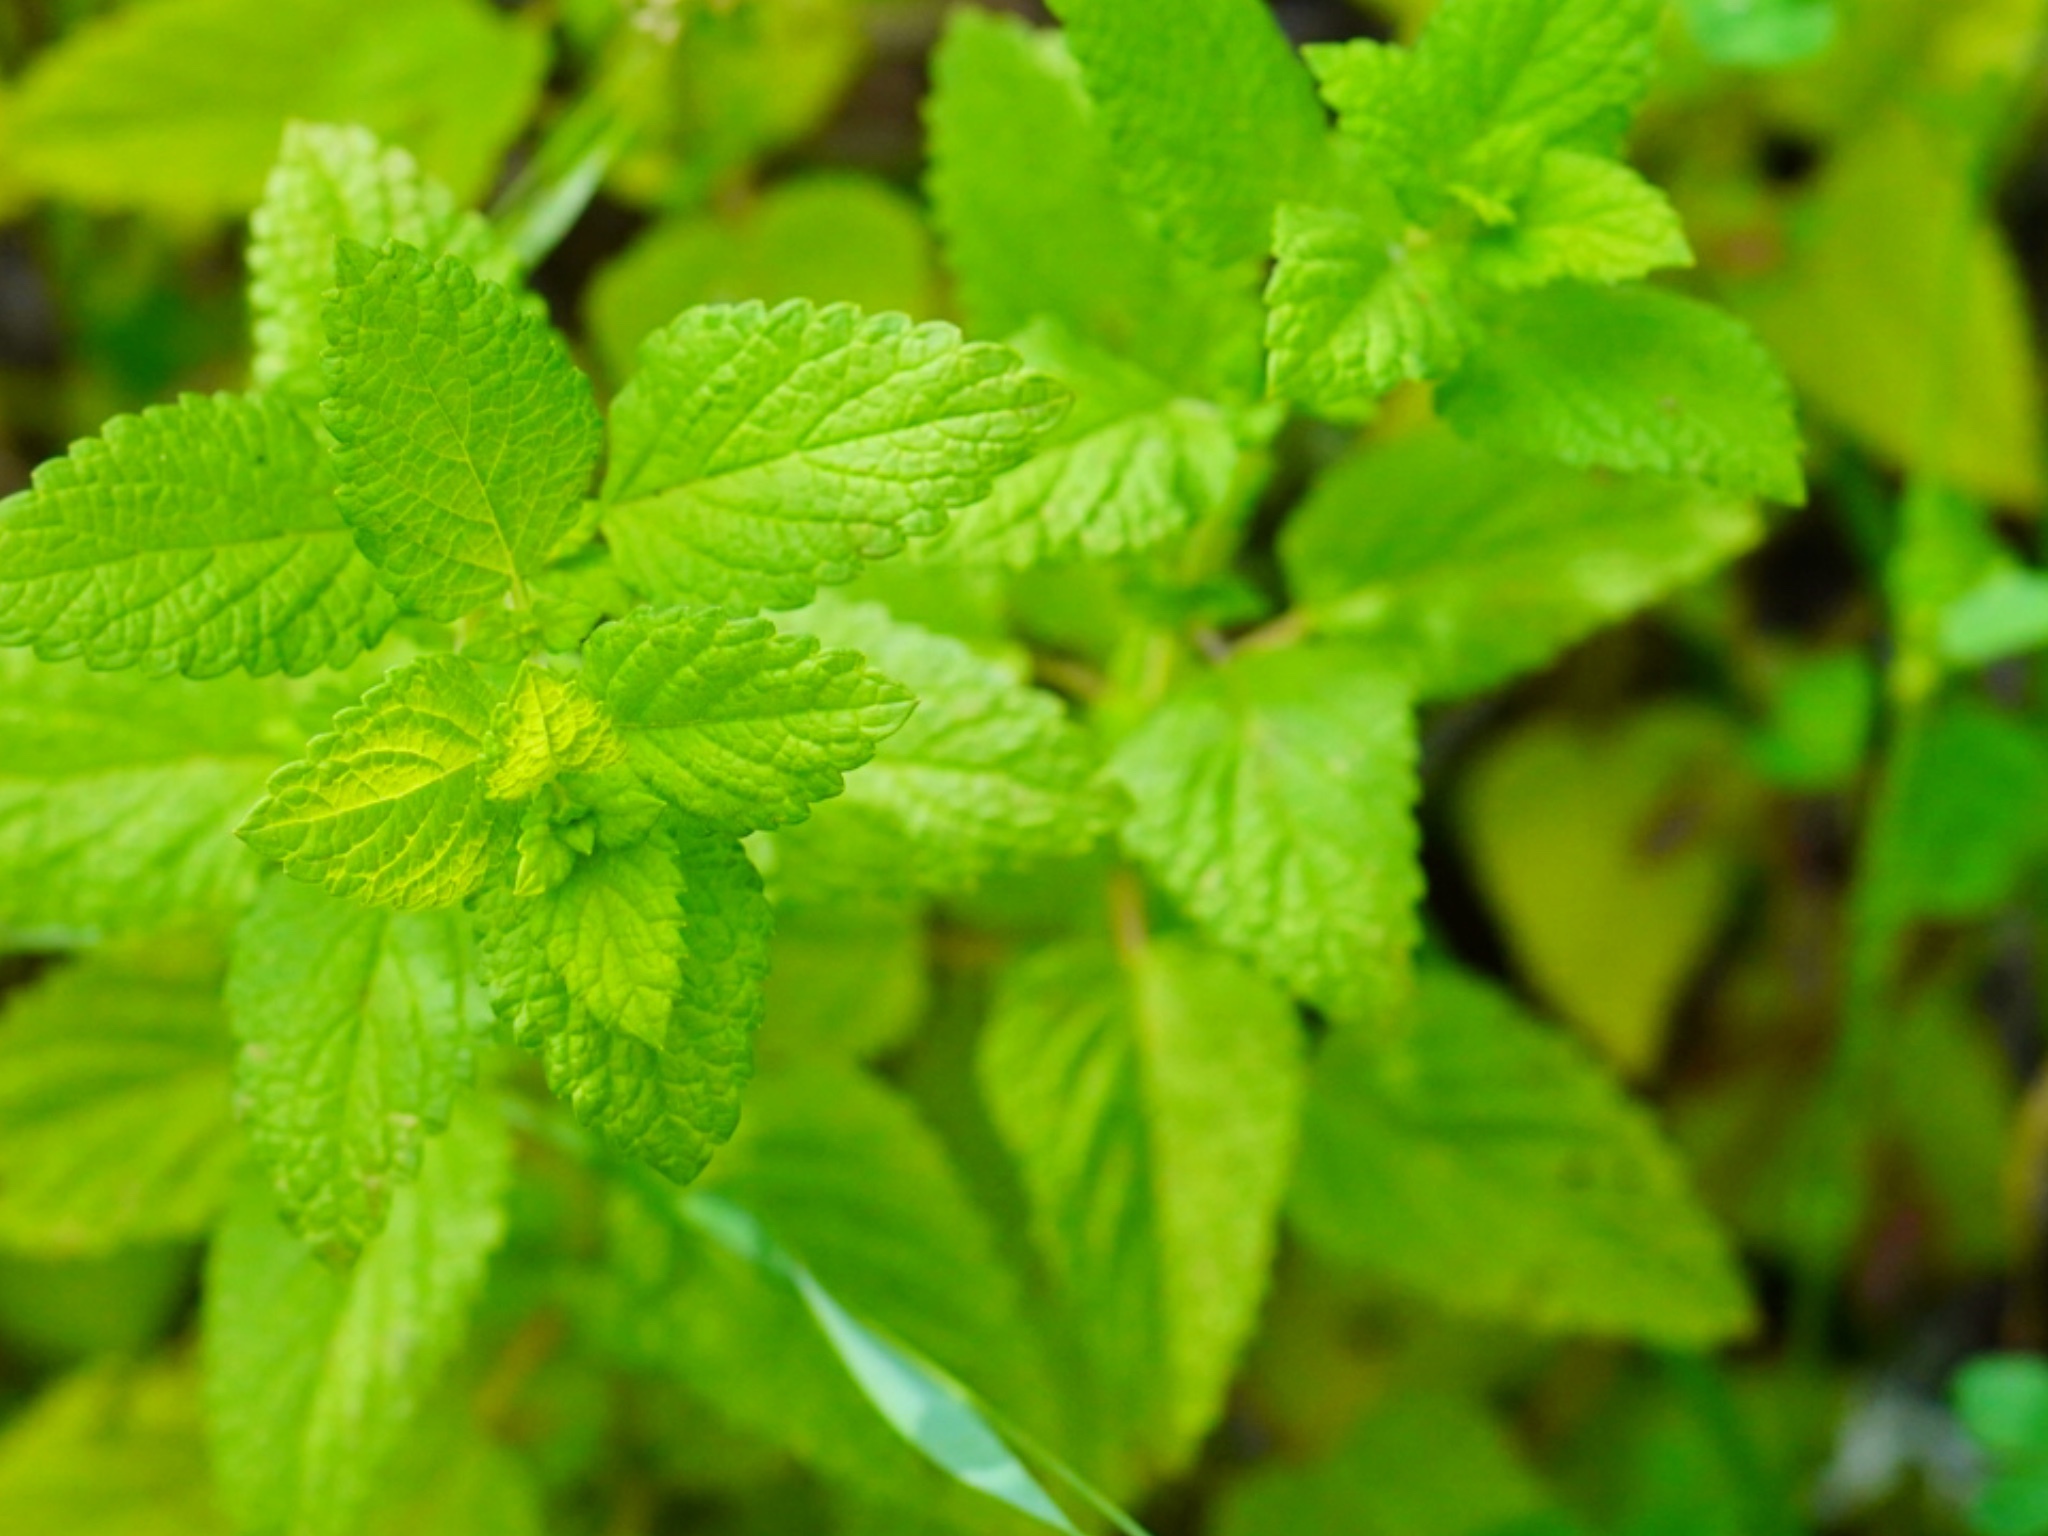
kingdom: Plantae
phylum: Tracheophyta
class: Magnoliopsida
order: Lamiales
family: Lamiaceae
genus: Melissa
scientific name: Melissa officinalis
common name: Balm
